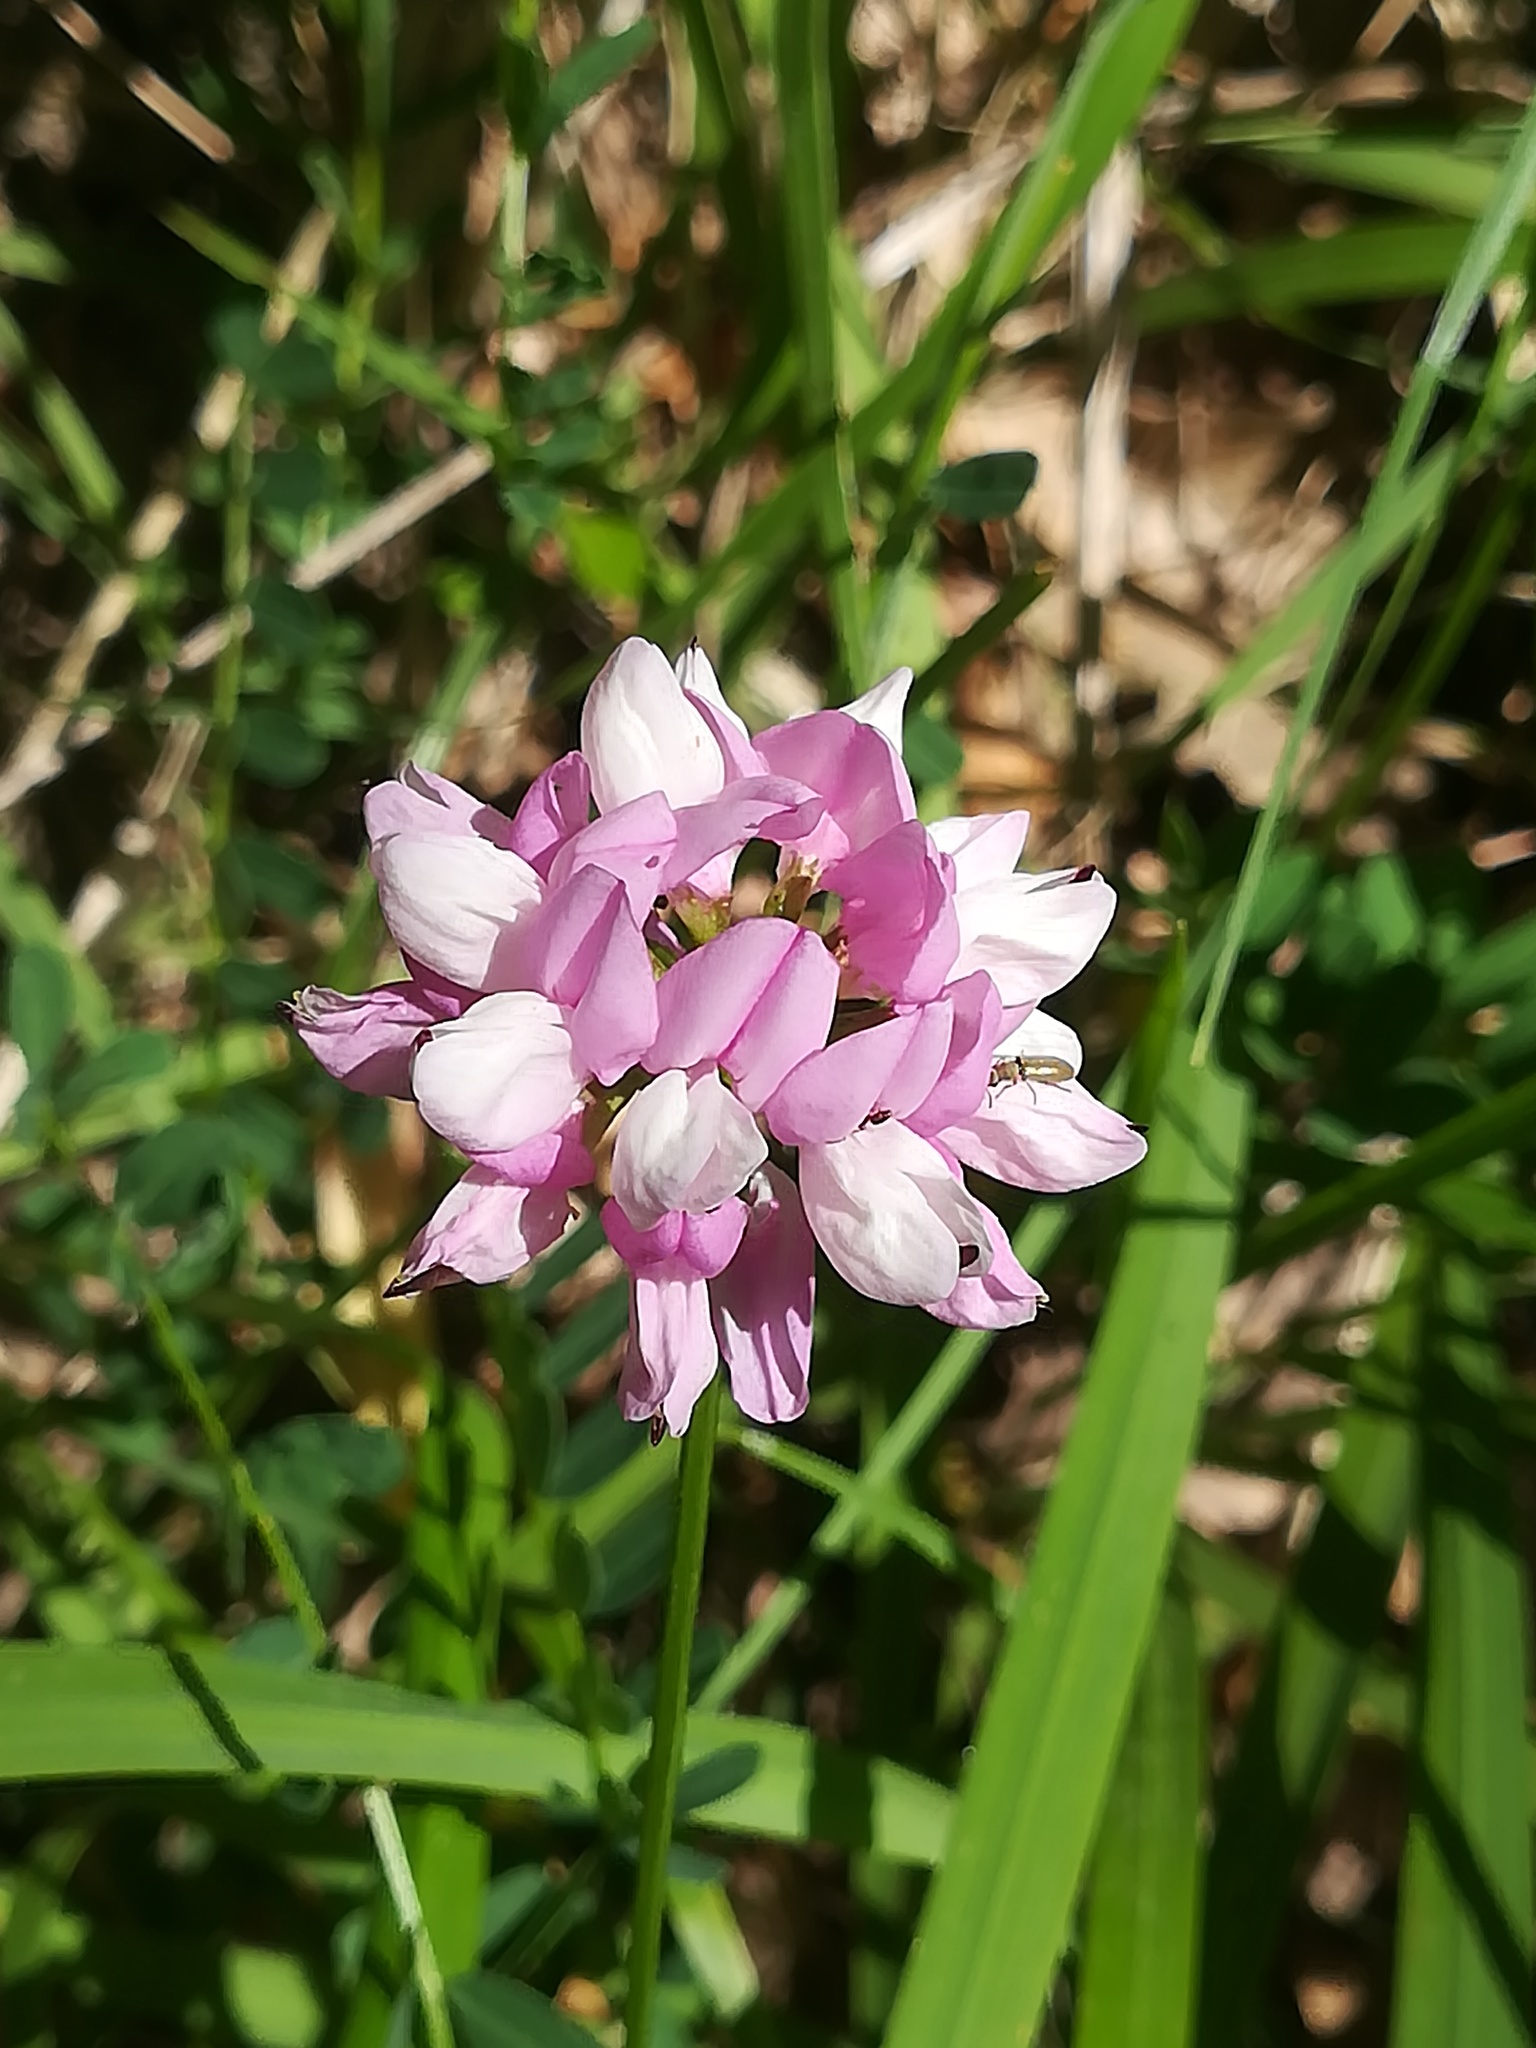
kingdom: Plantae
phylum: Tracheophyta
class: Magnoliopsida
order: Fabales
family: Fabaceae
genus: Coronilla
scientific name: Coronilla varia
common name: Crownvetch
